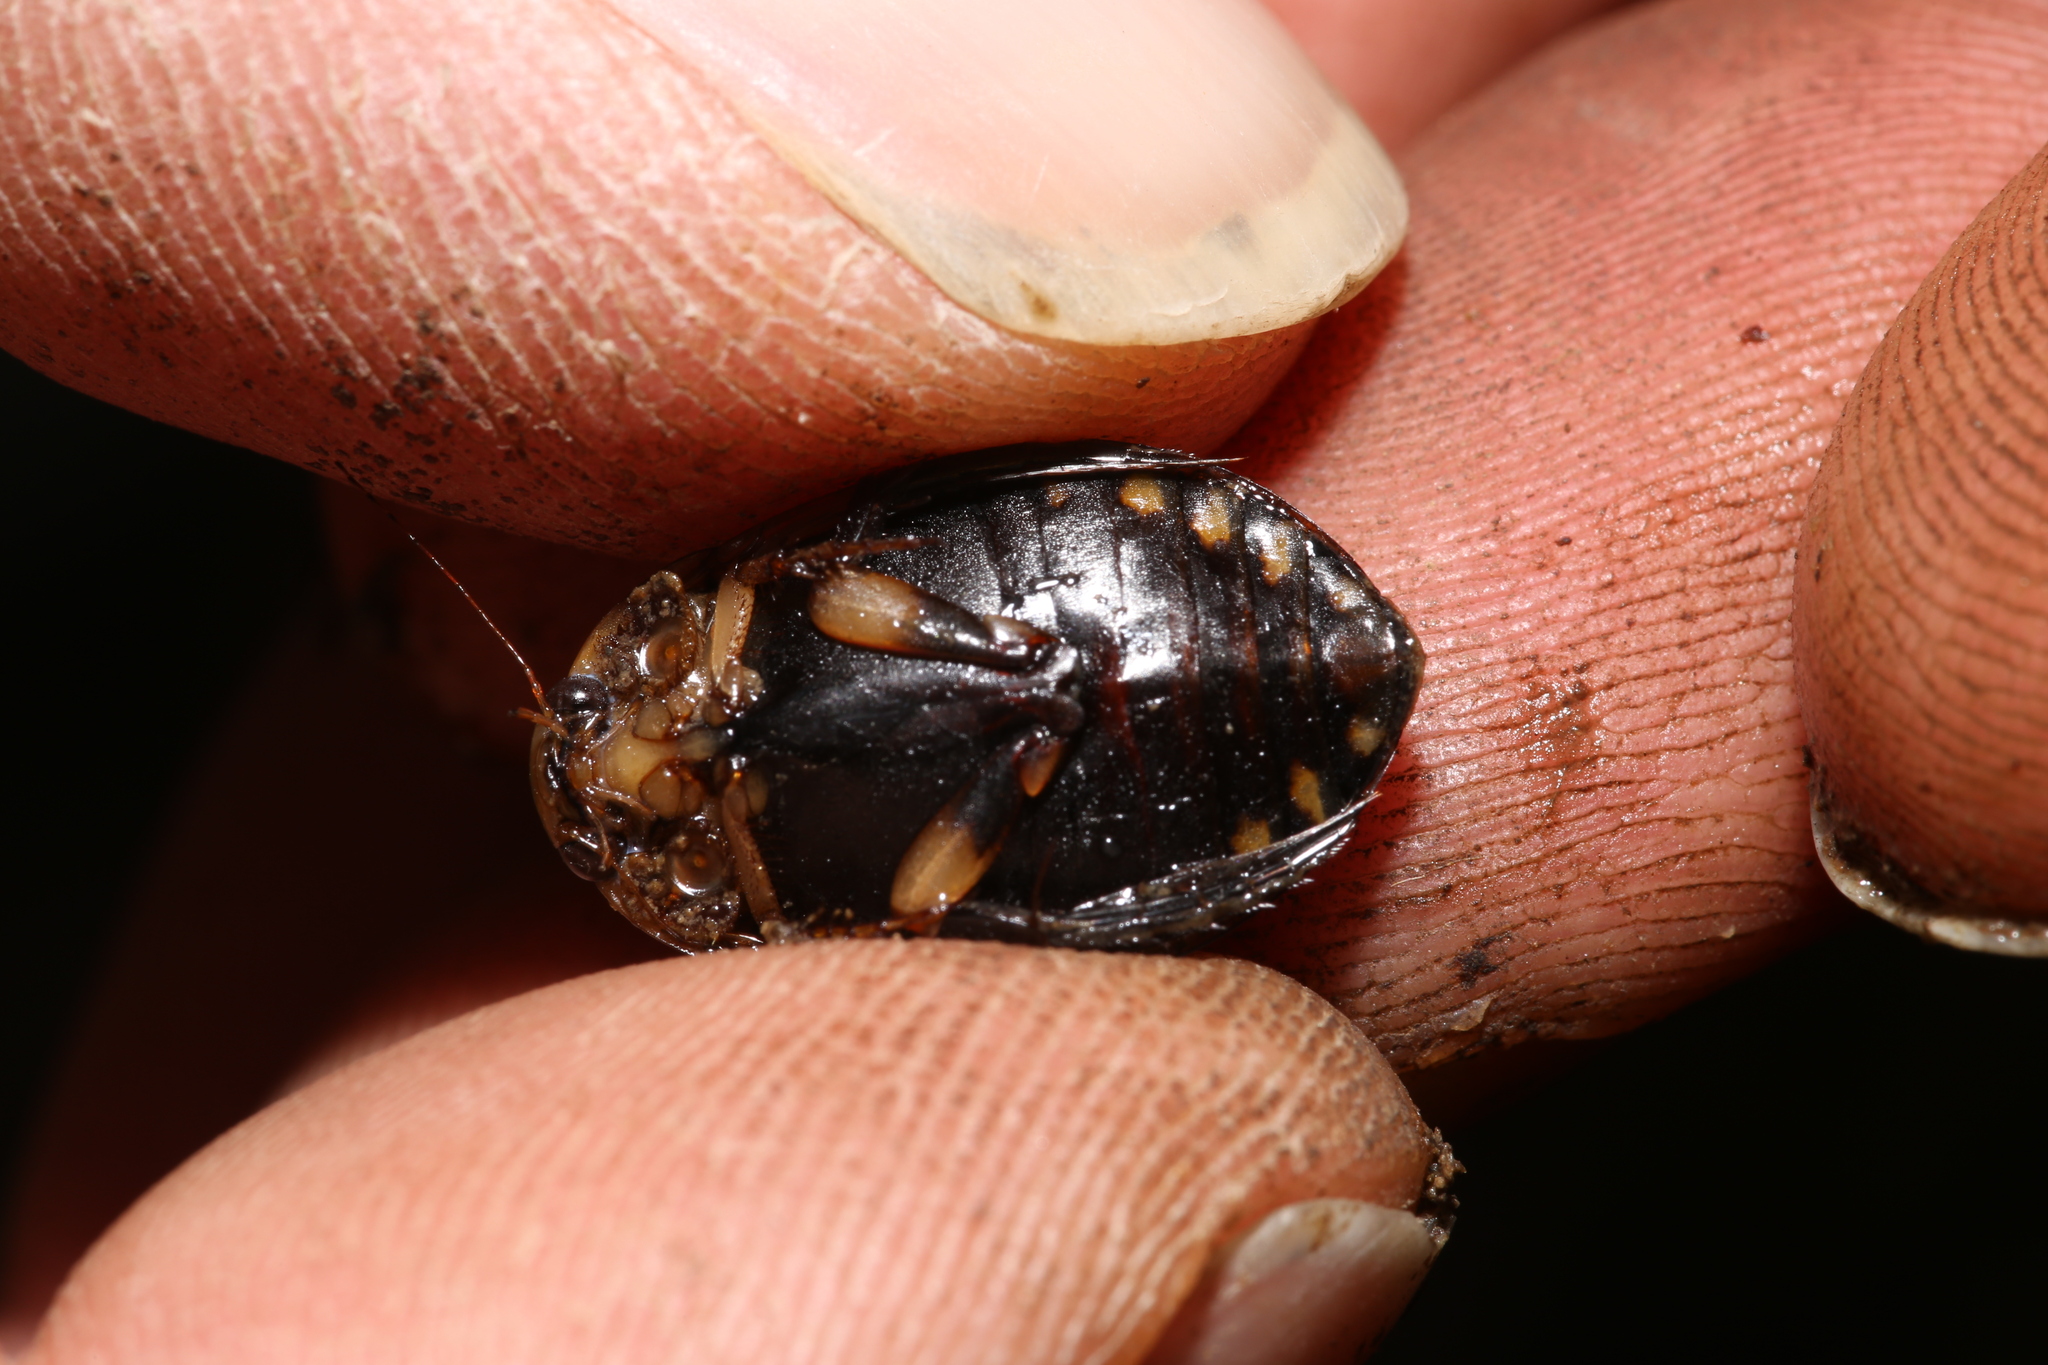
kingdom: Animalia
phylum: Arthropoda
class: Insecta
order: Coleoptera
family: Dytiscidae
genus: Acilius
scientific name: Acilius sulcatus
